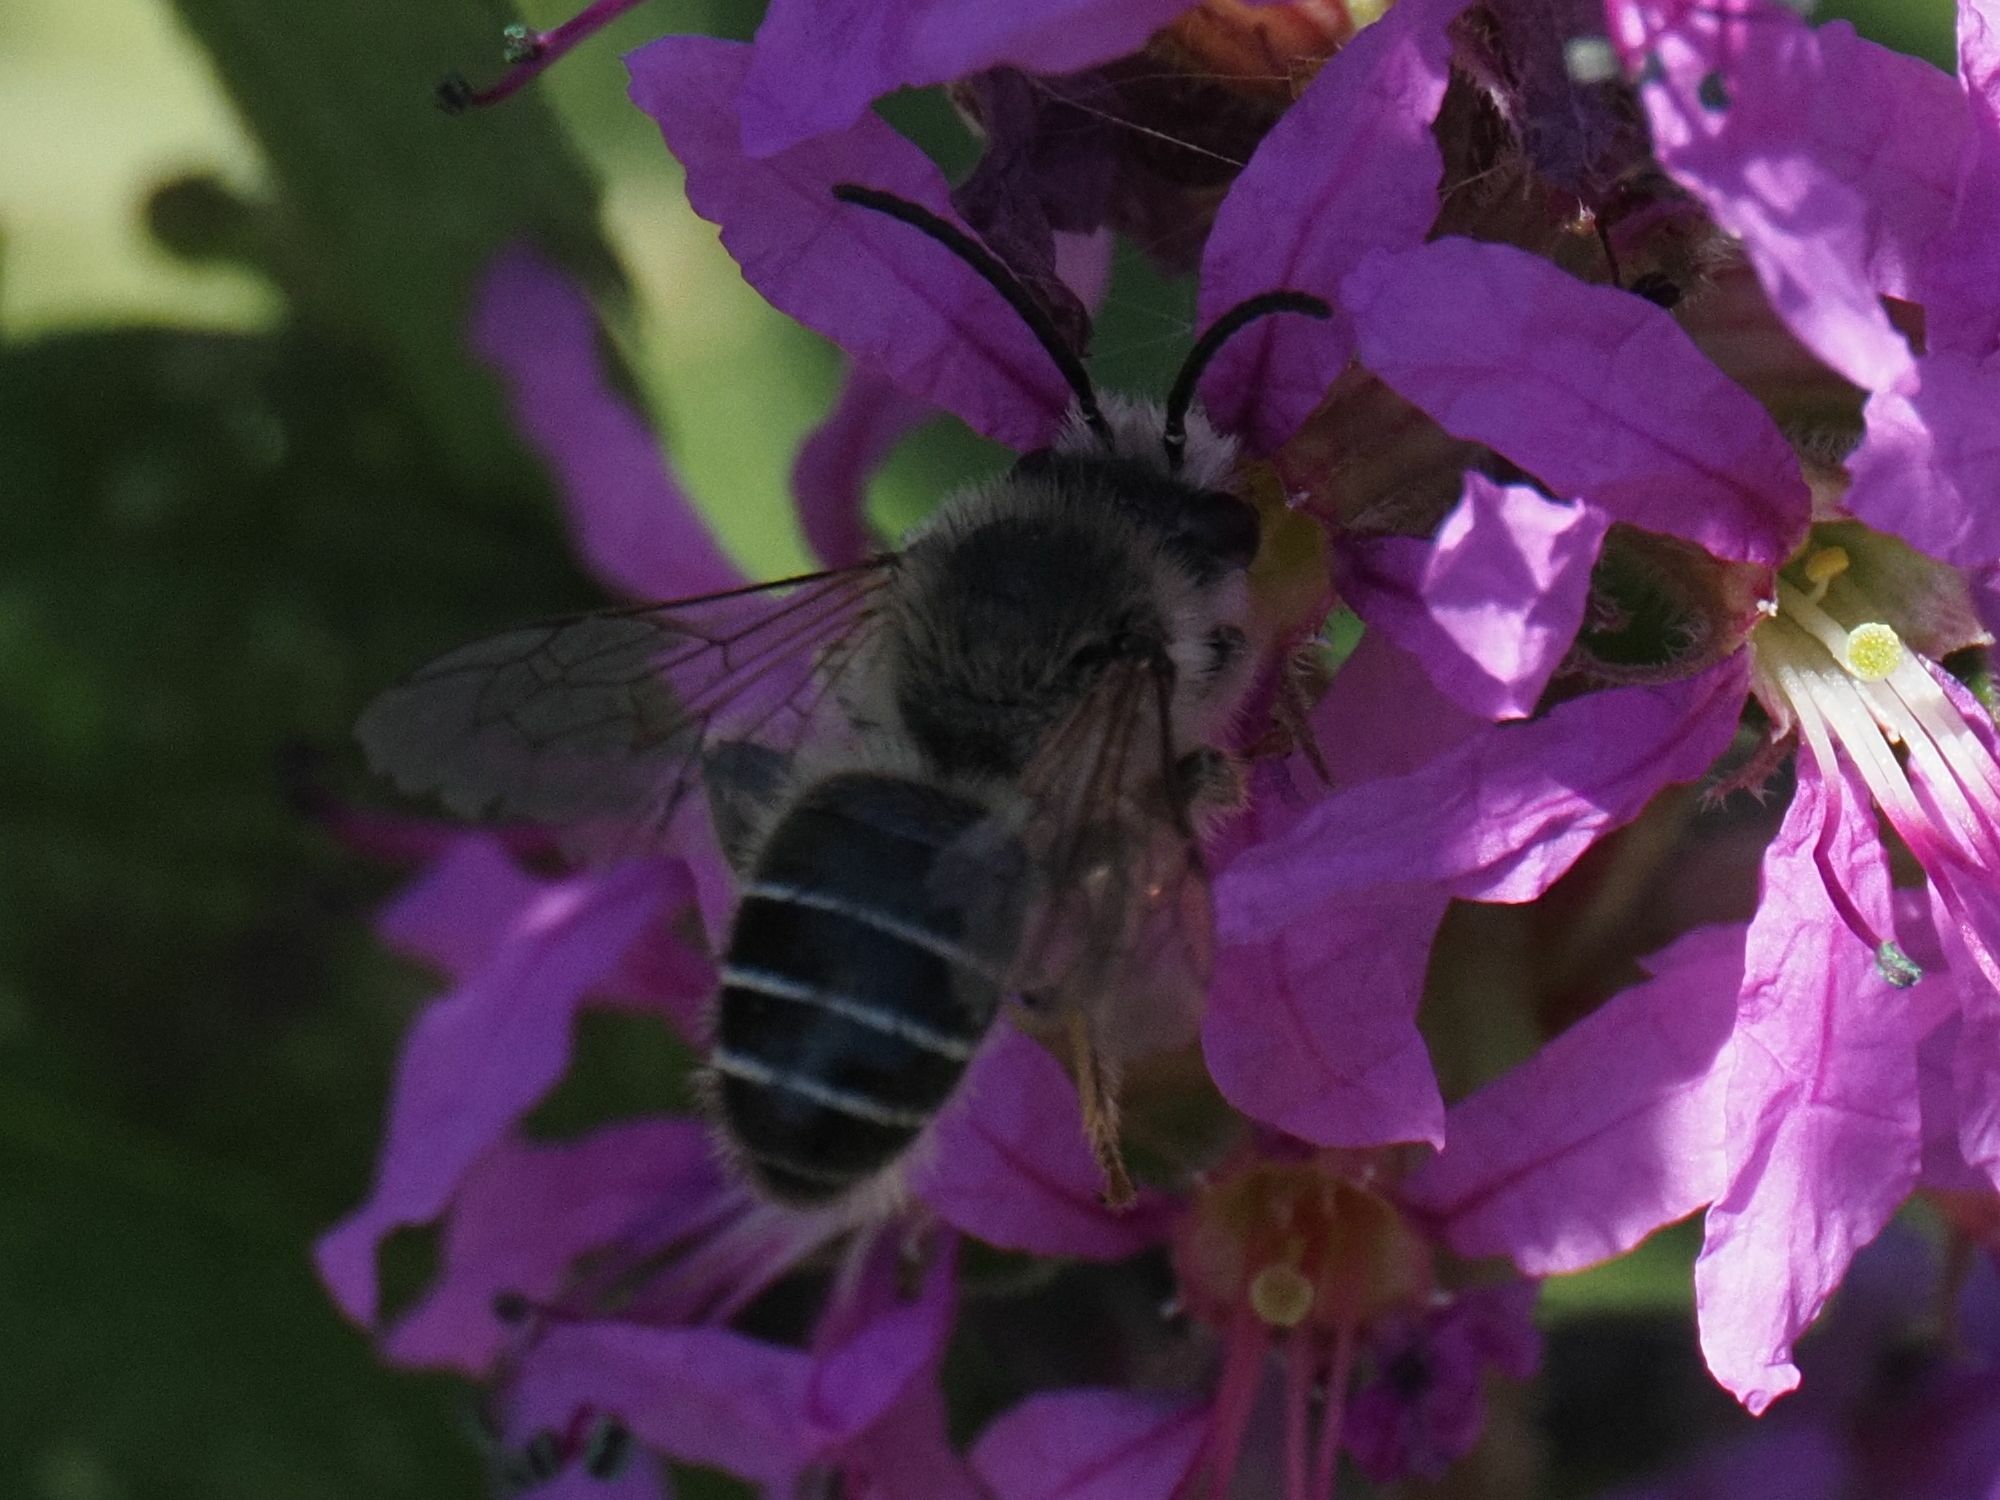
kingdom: Animalia
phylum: Arthropoda
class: Insecta
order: Hymenoptera
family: Melittidae
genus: Melitta
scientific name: Melitta nigricans
